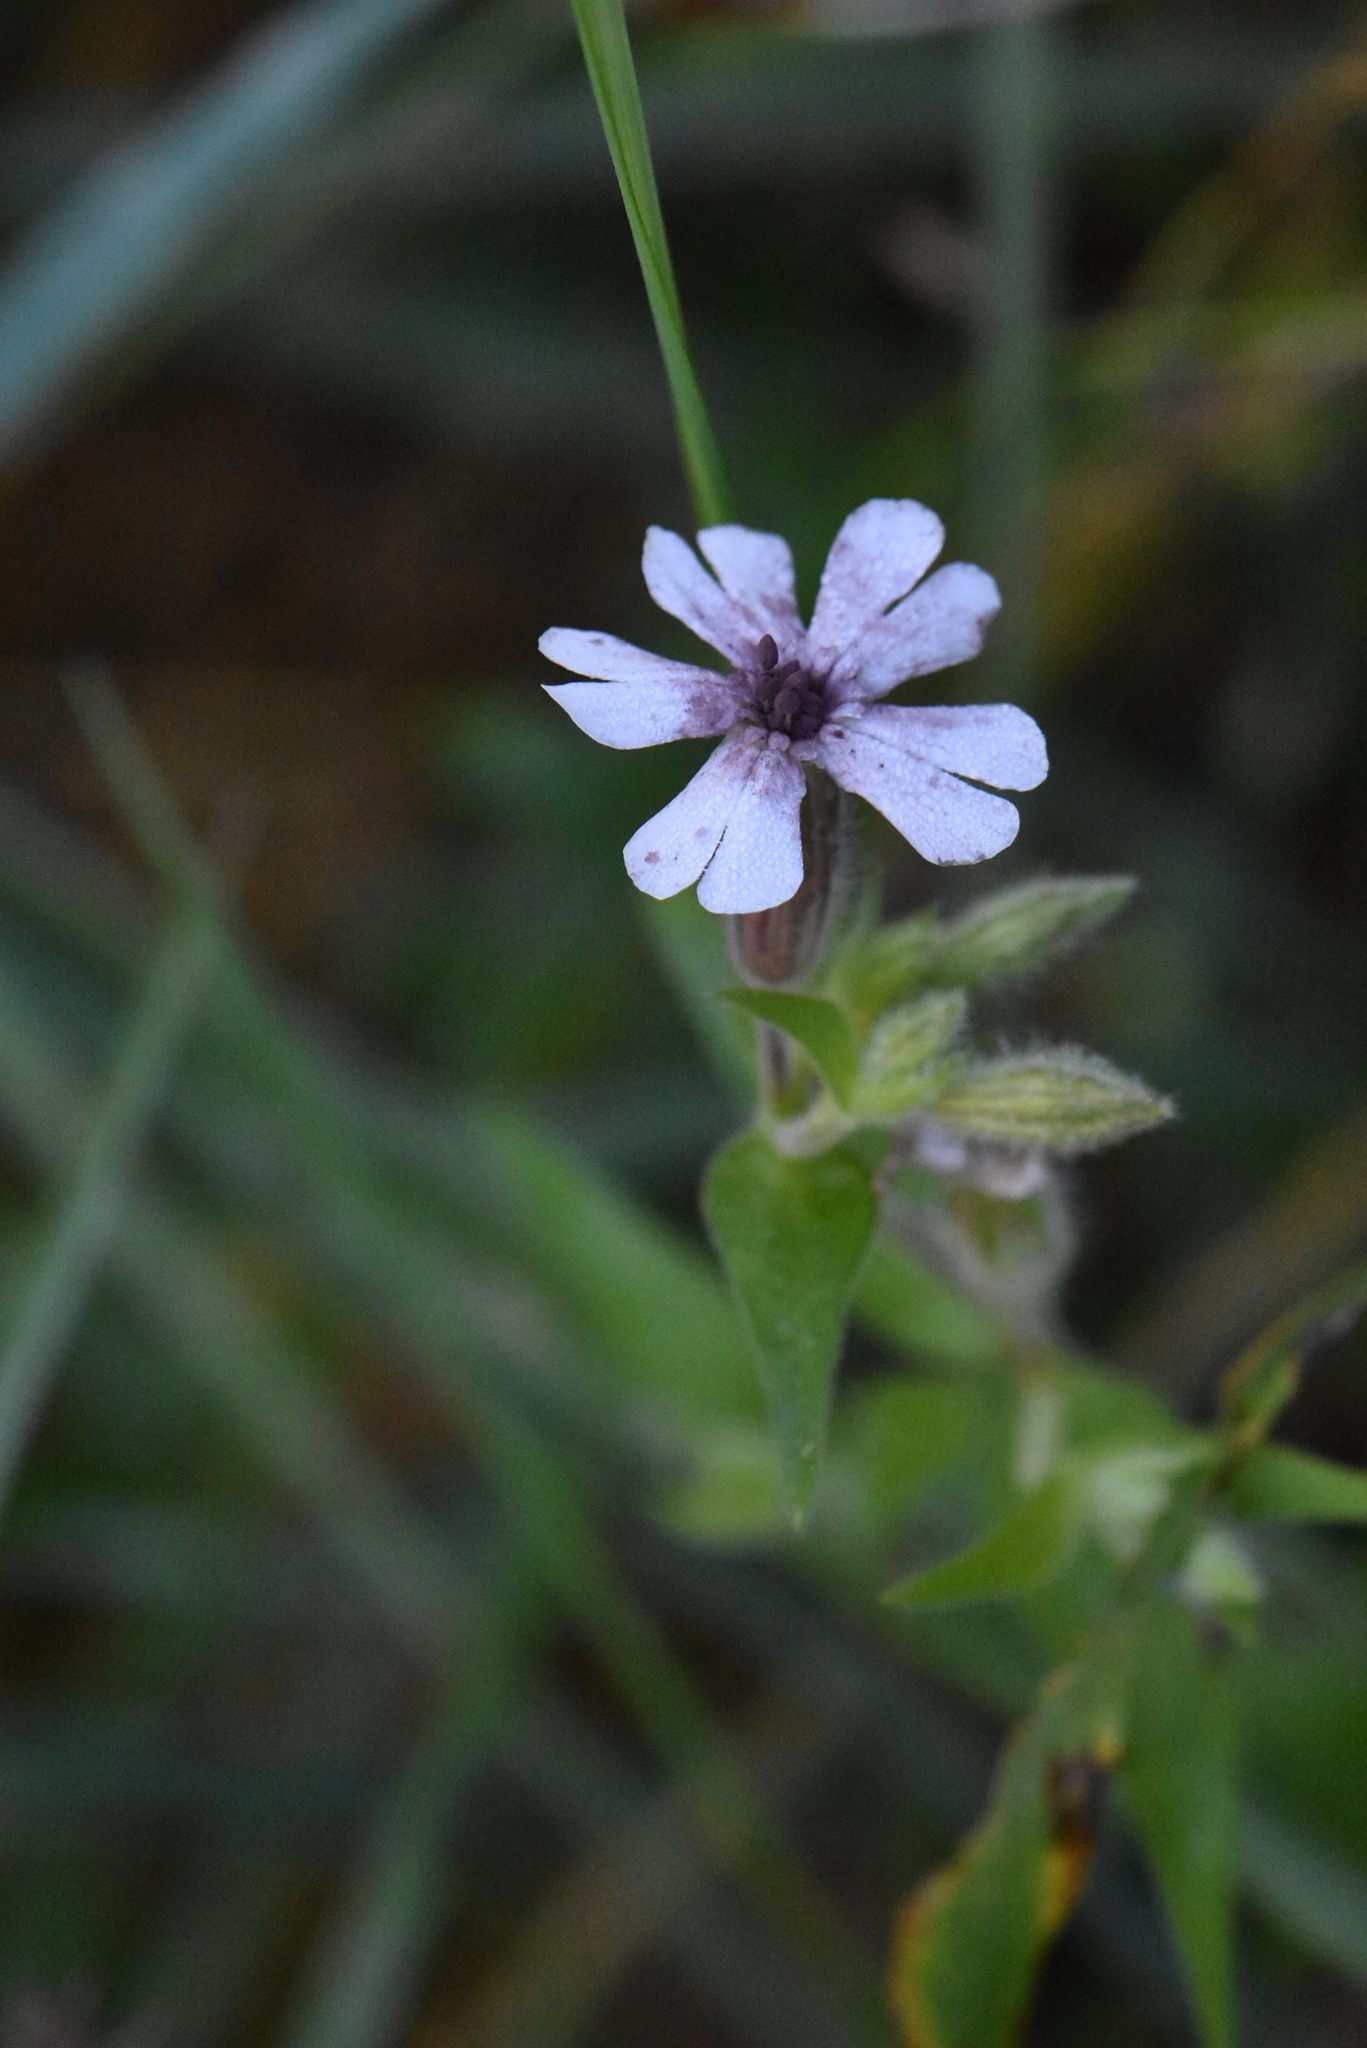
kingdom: Plantae
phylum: Tracheophyta
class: Magnoliopsida
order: Caryophyllales
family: Caryophyllaceae
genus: Silene
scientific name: Silene latifolia
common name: White campion
